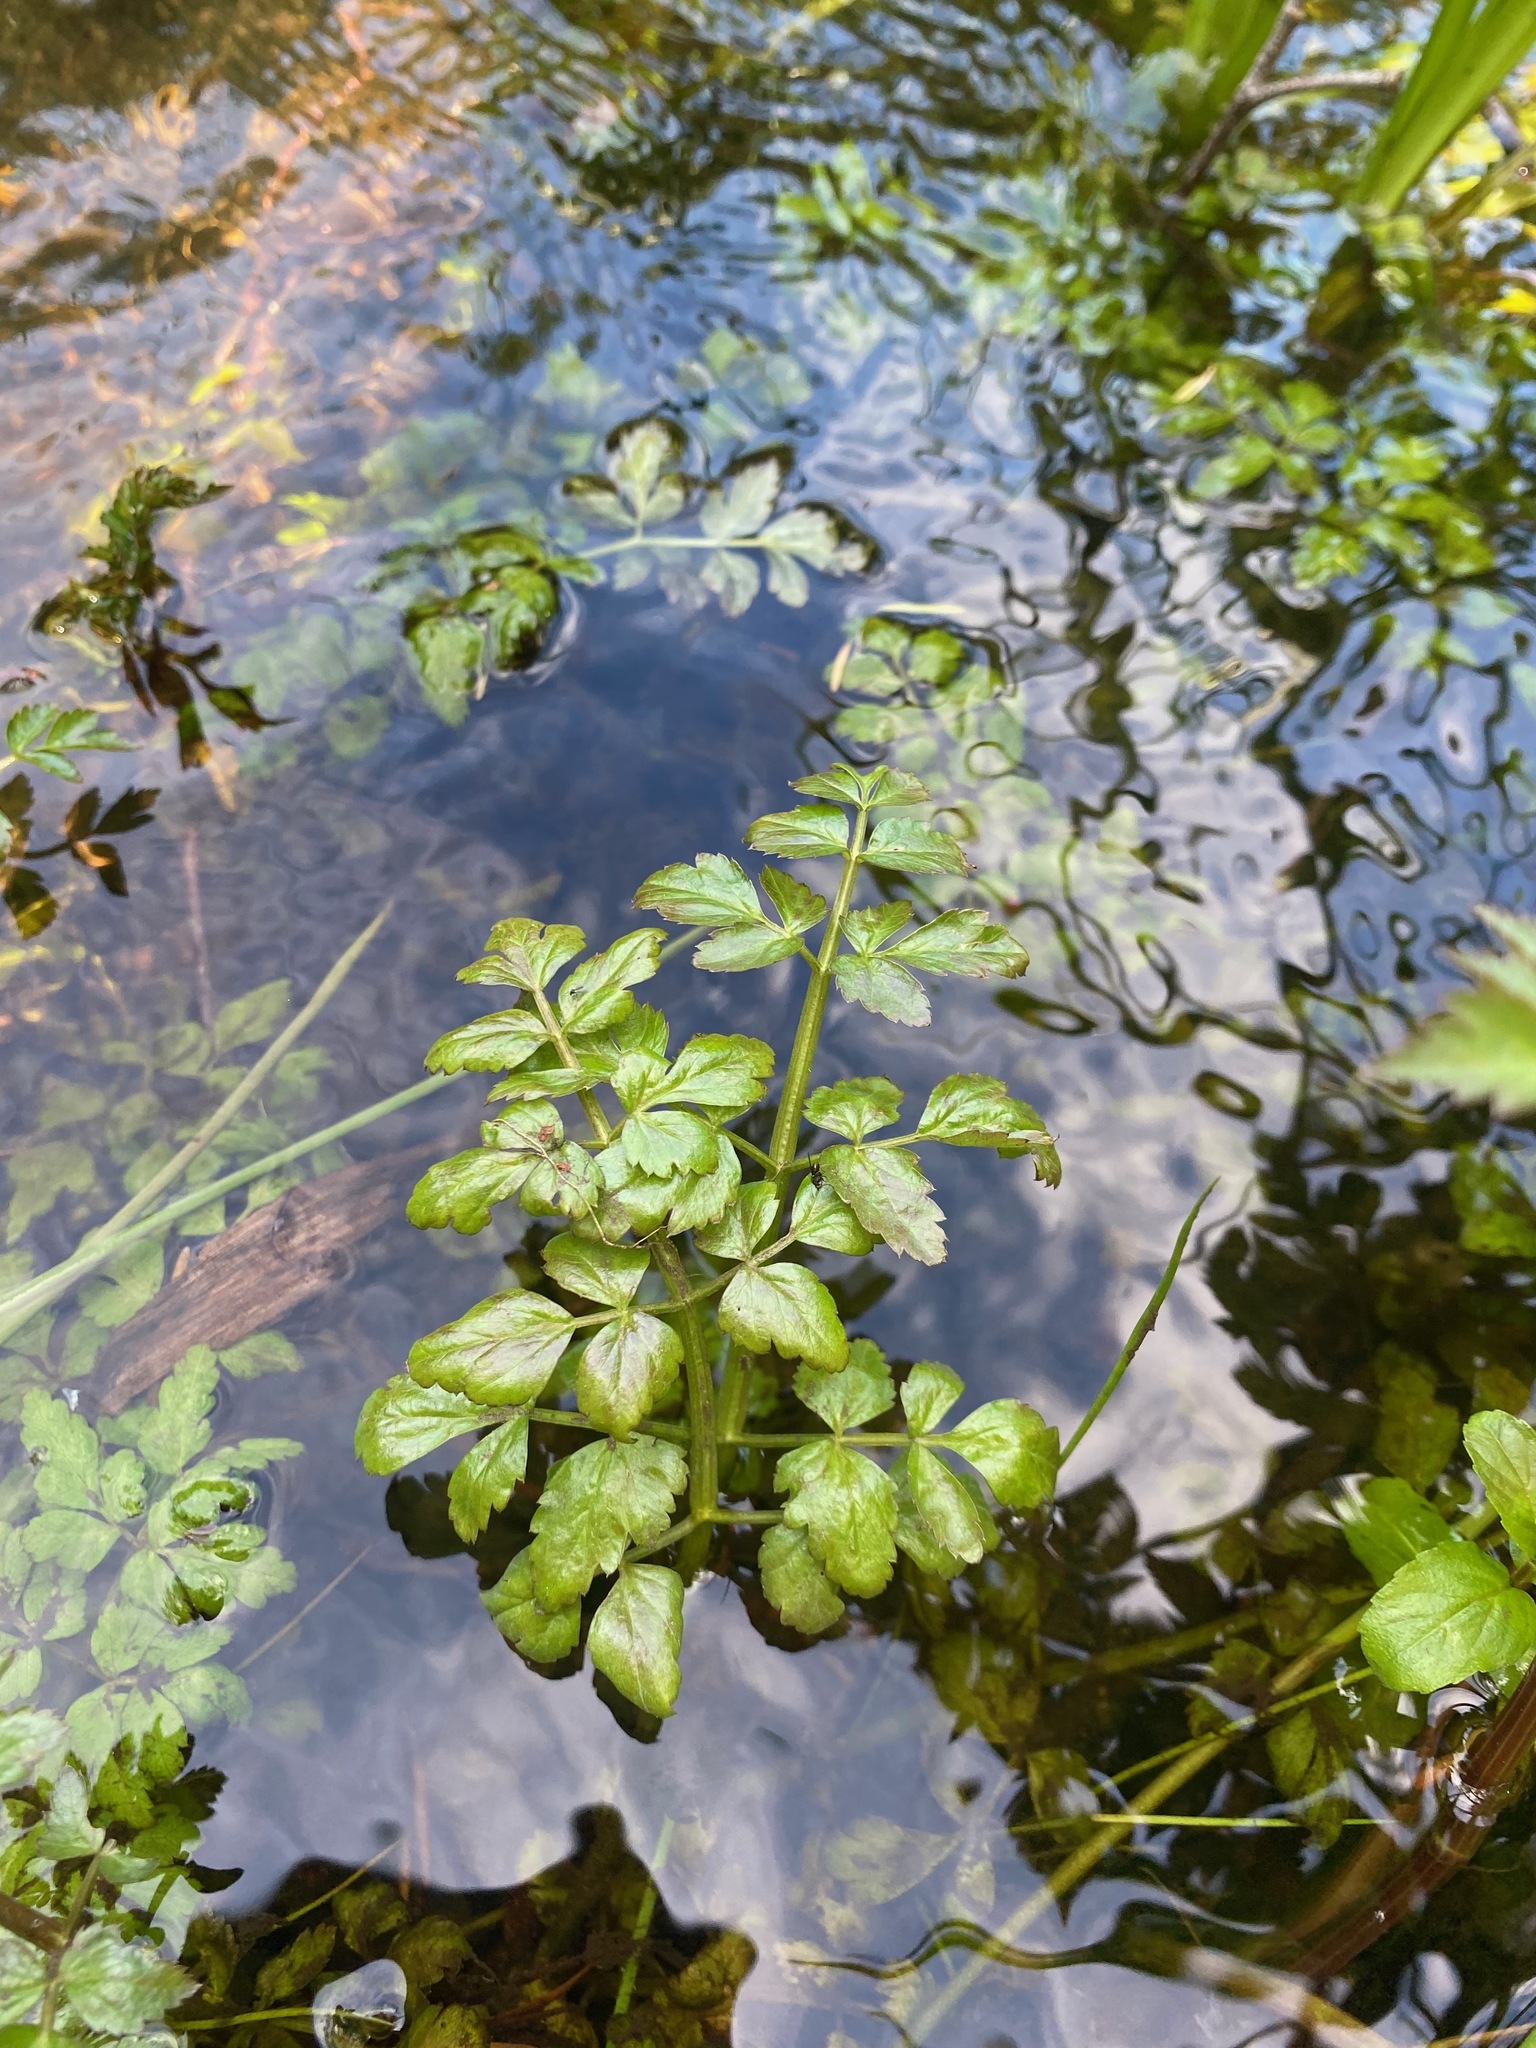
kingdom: Plantae
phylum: Tracheophyta
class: Magnoliopsida
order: Apiales
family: Apiaceae
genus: Oenanthe
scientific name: Oenanthe sarmentosa
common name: American water-parsley
